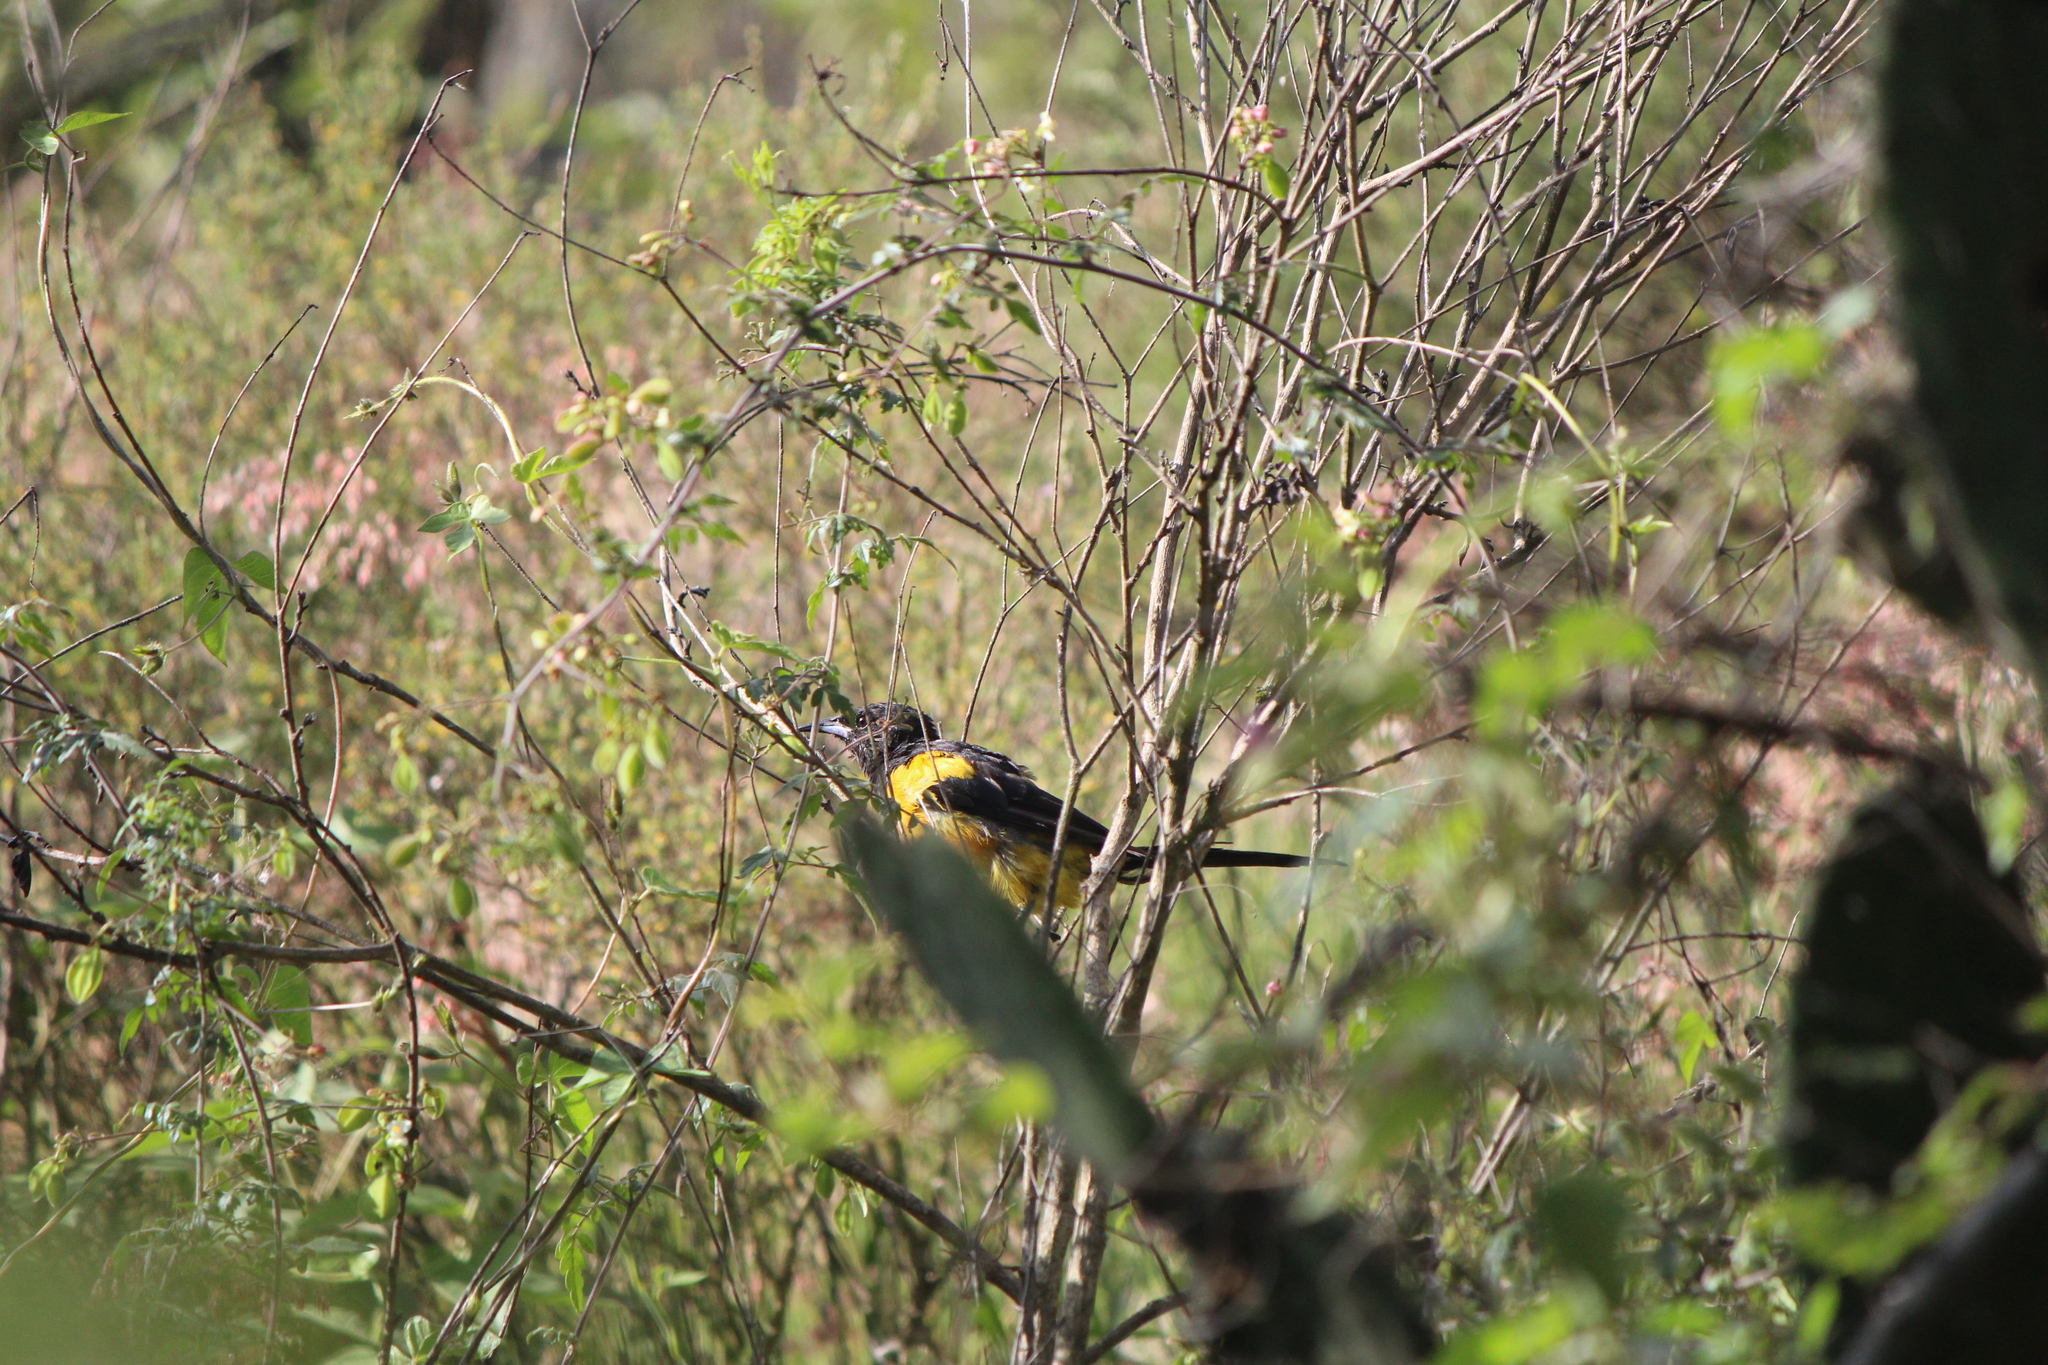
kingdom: Animalia
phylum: Chordata
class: Aves
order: Passeriformes
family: Icteridae
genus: Icterus
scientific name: Icterus wagleri
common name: Black-vented oriole
